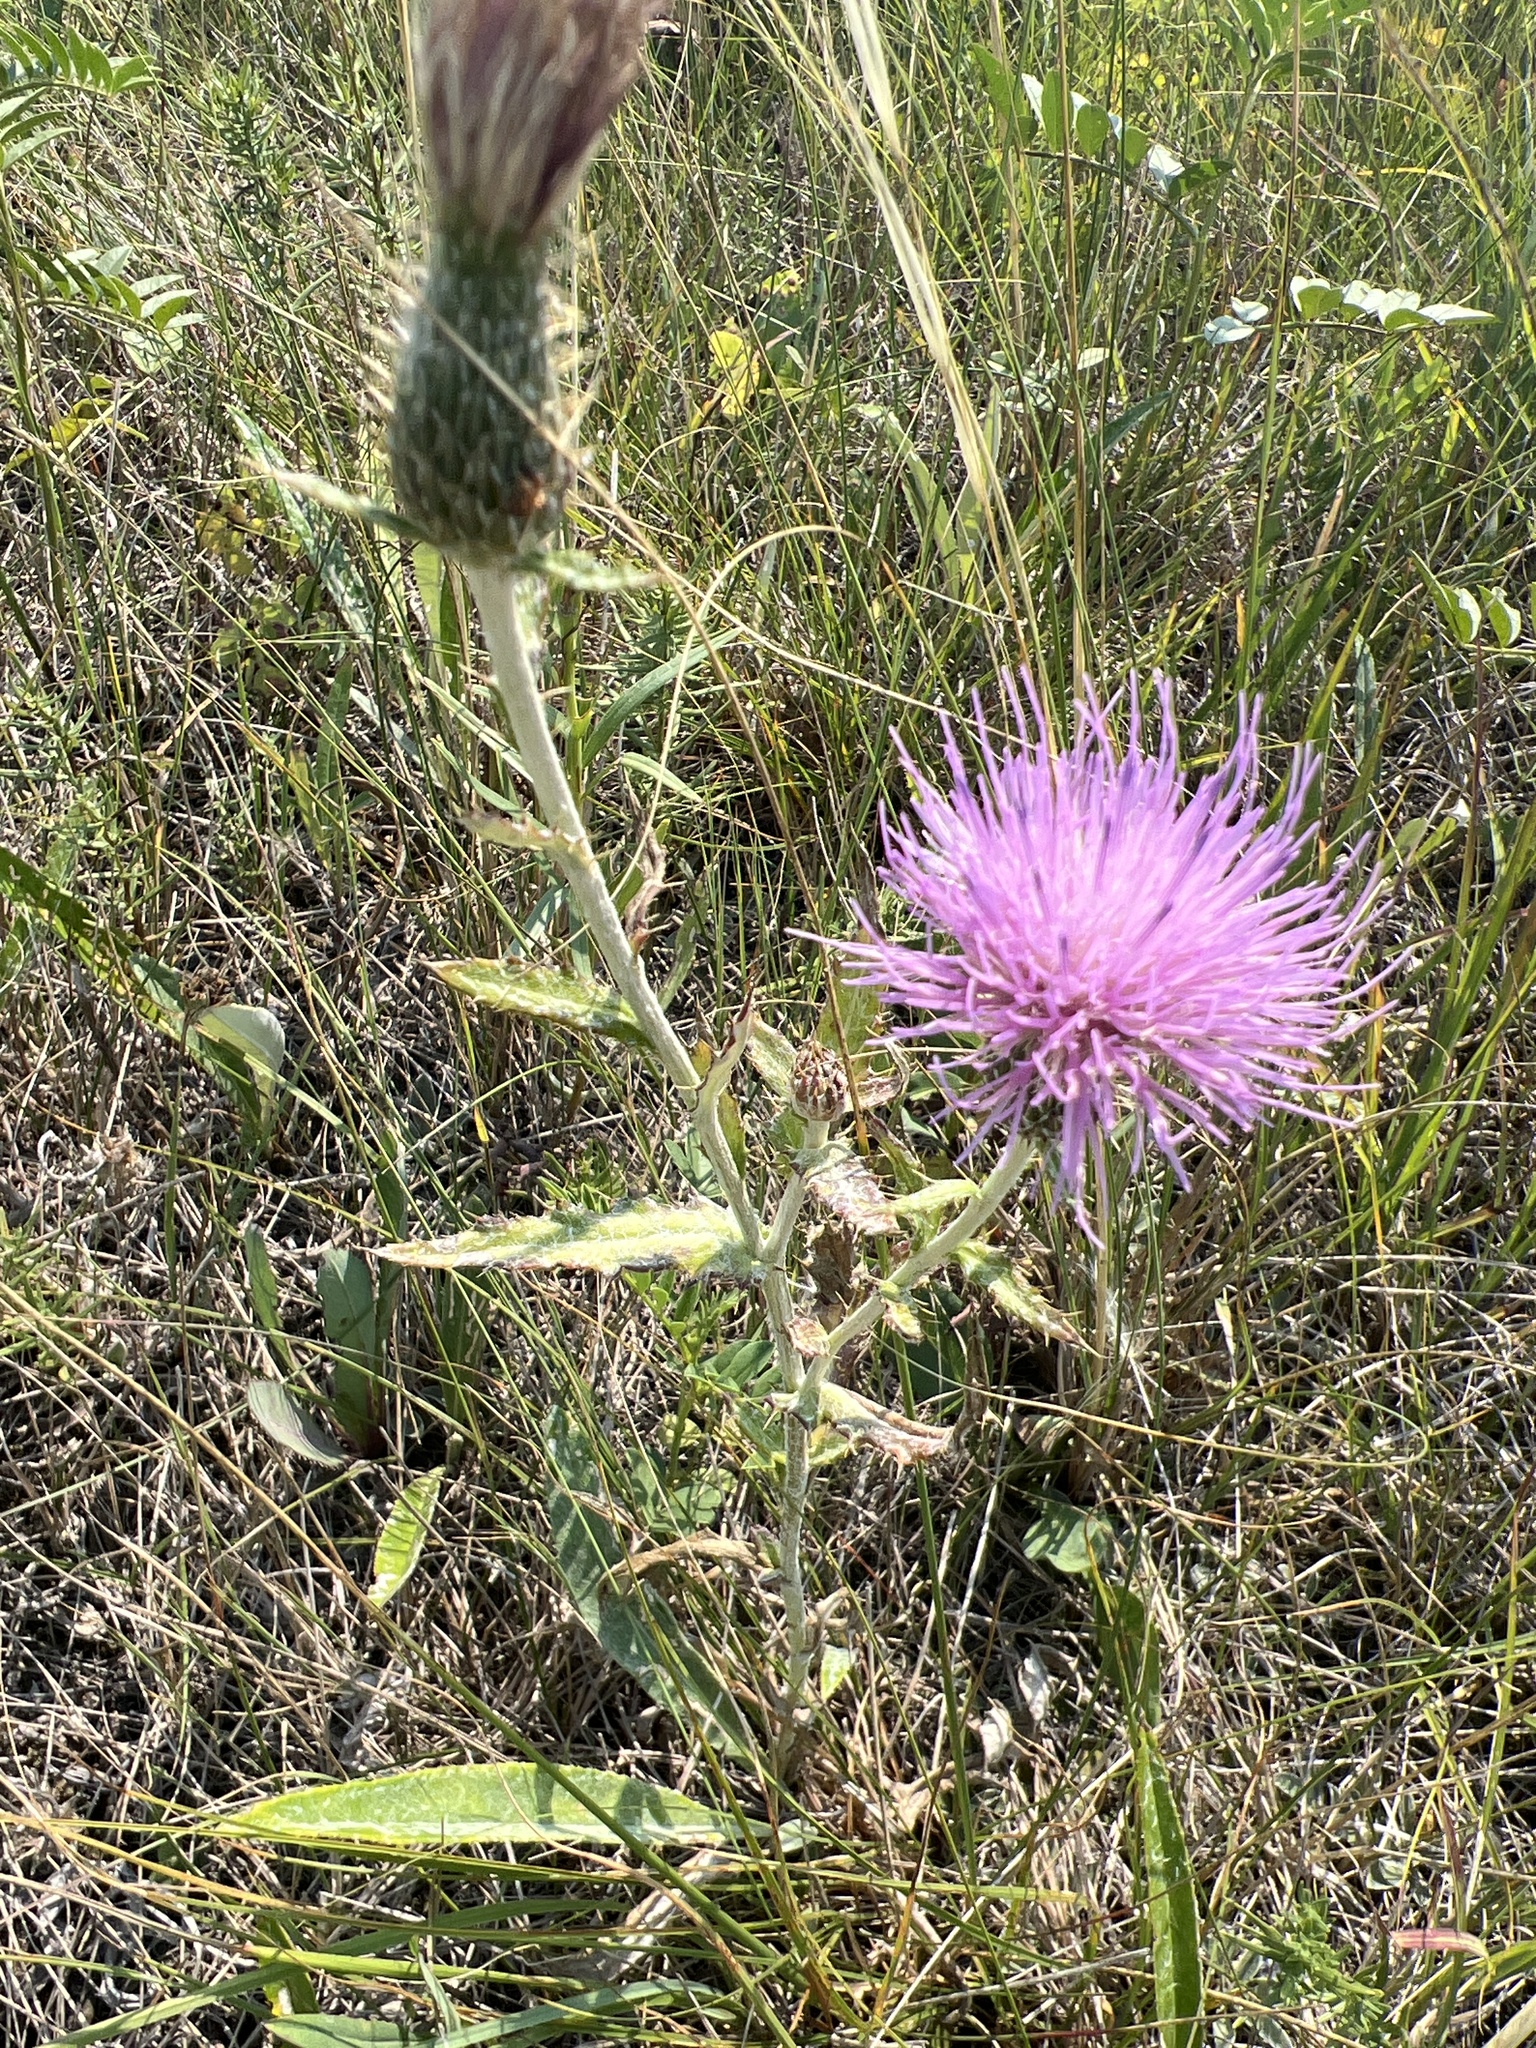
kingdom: Plantae
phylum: Tracheophyta
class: Magnoliopsida
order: Asterales
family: Asteraceae
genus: Cirsium
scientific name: Cirsium flodmanii
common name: Flodman's thistle
